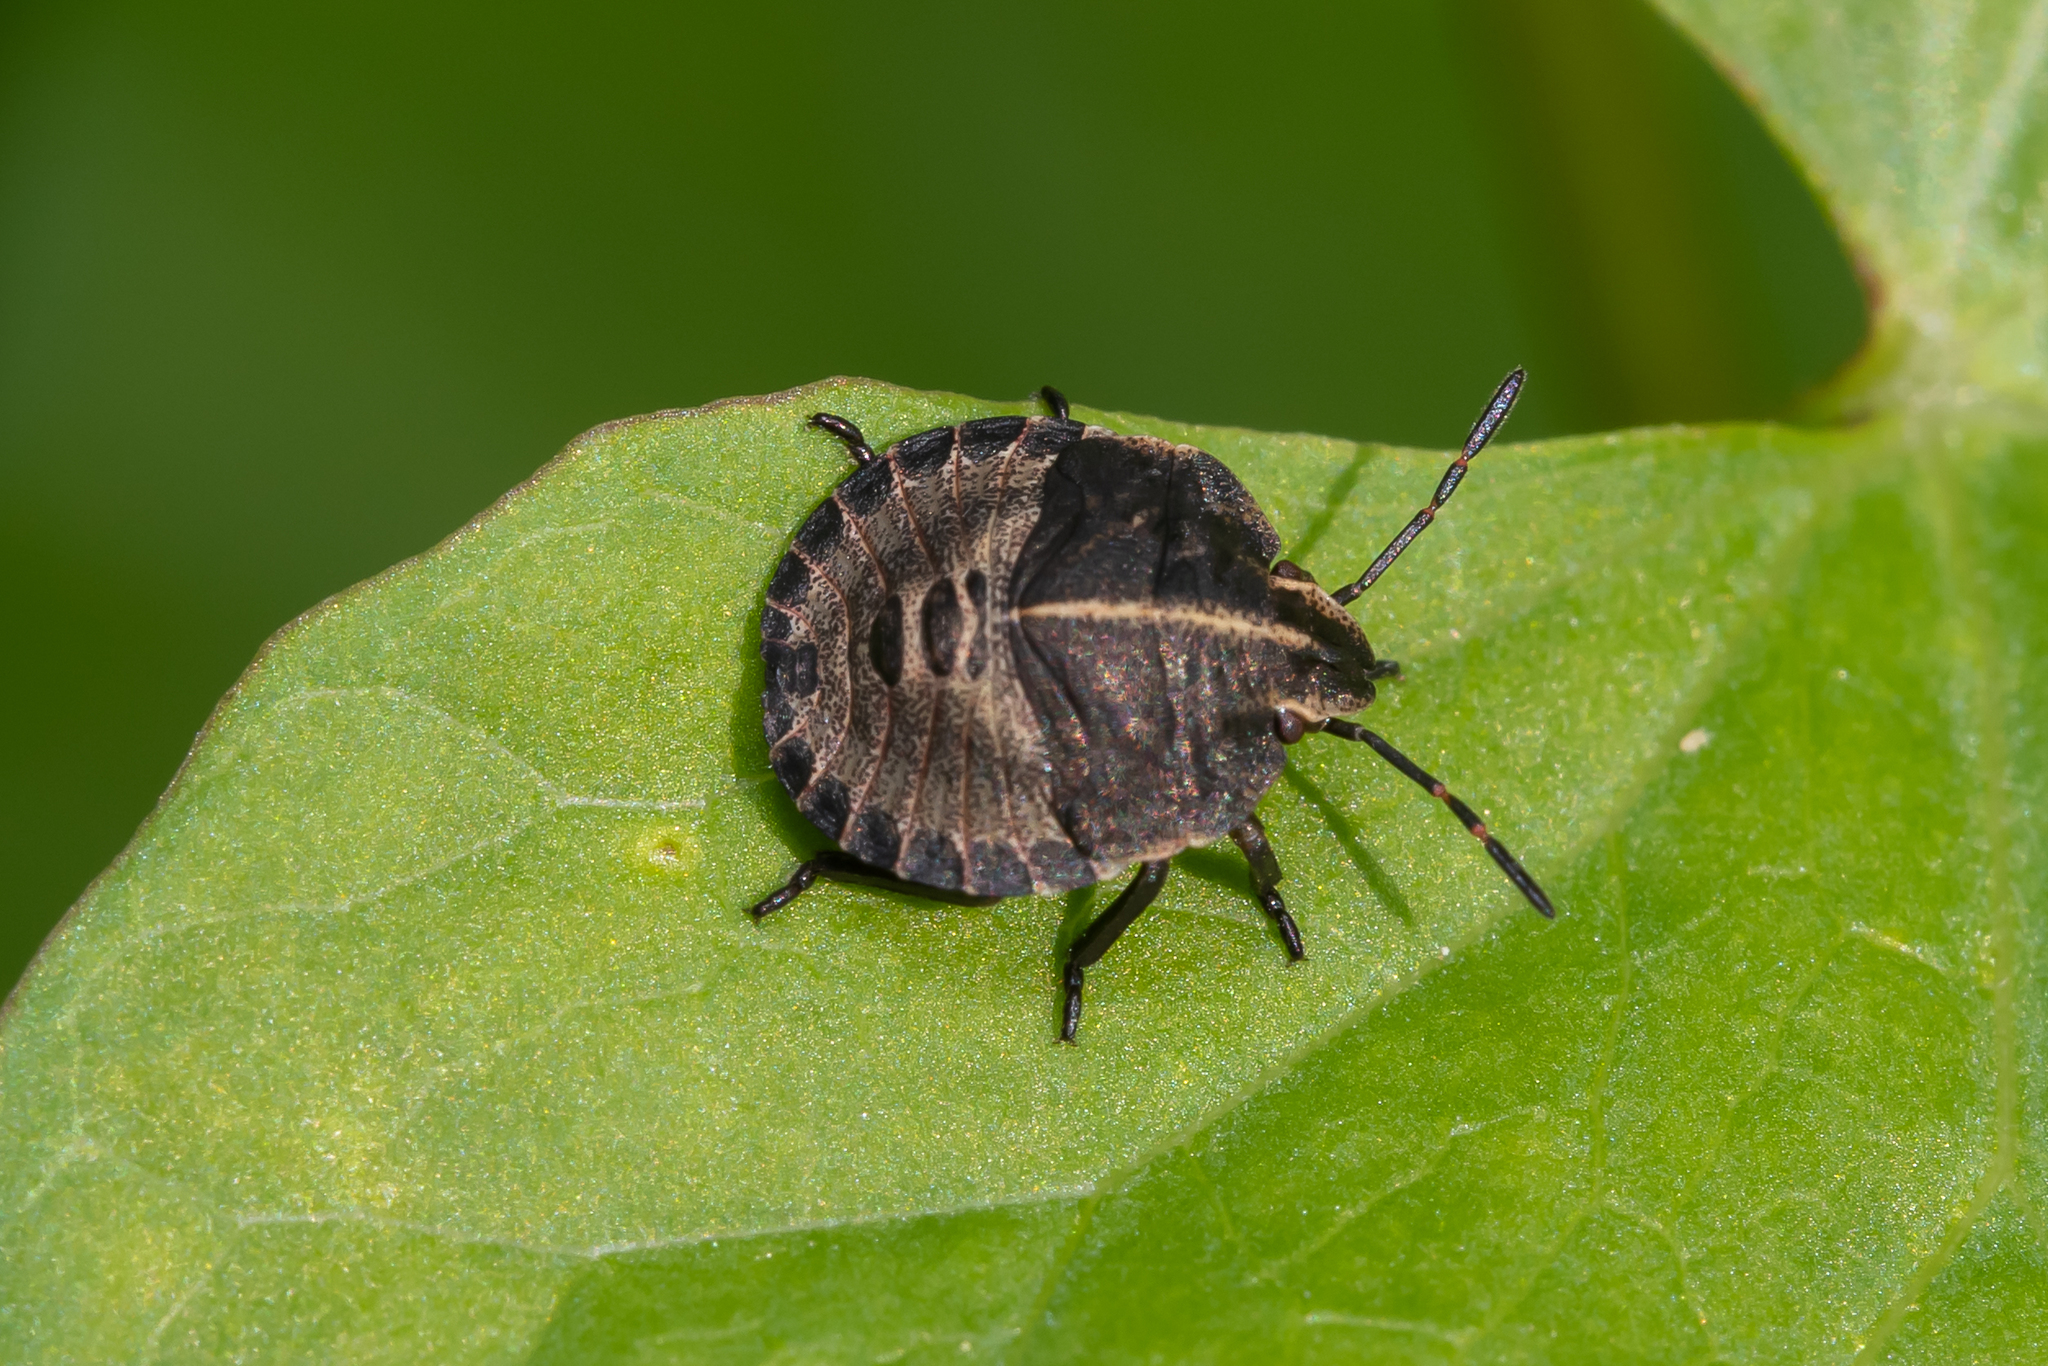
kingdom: Animalia
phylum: Arthropoda
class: Insecta
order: Hemiptera
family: Pentatomidae
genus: Graphosoma
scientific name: Graphosoma italicum
